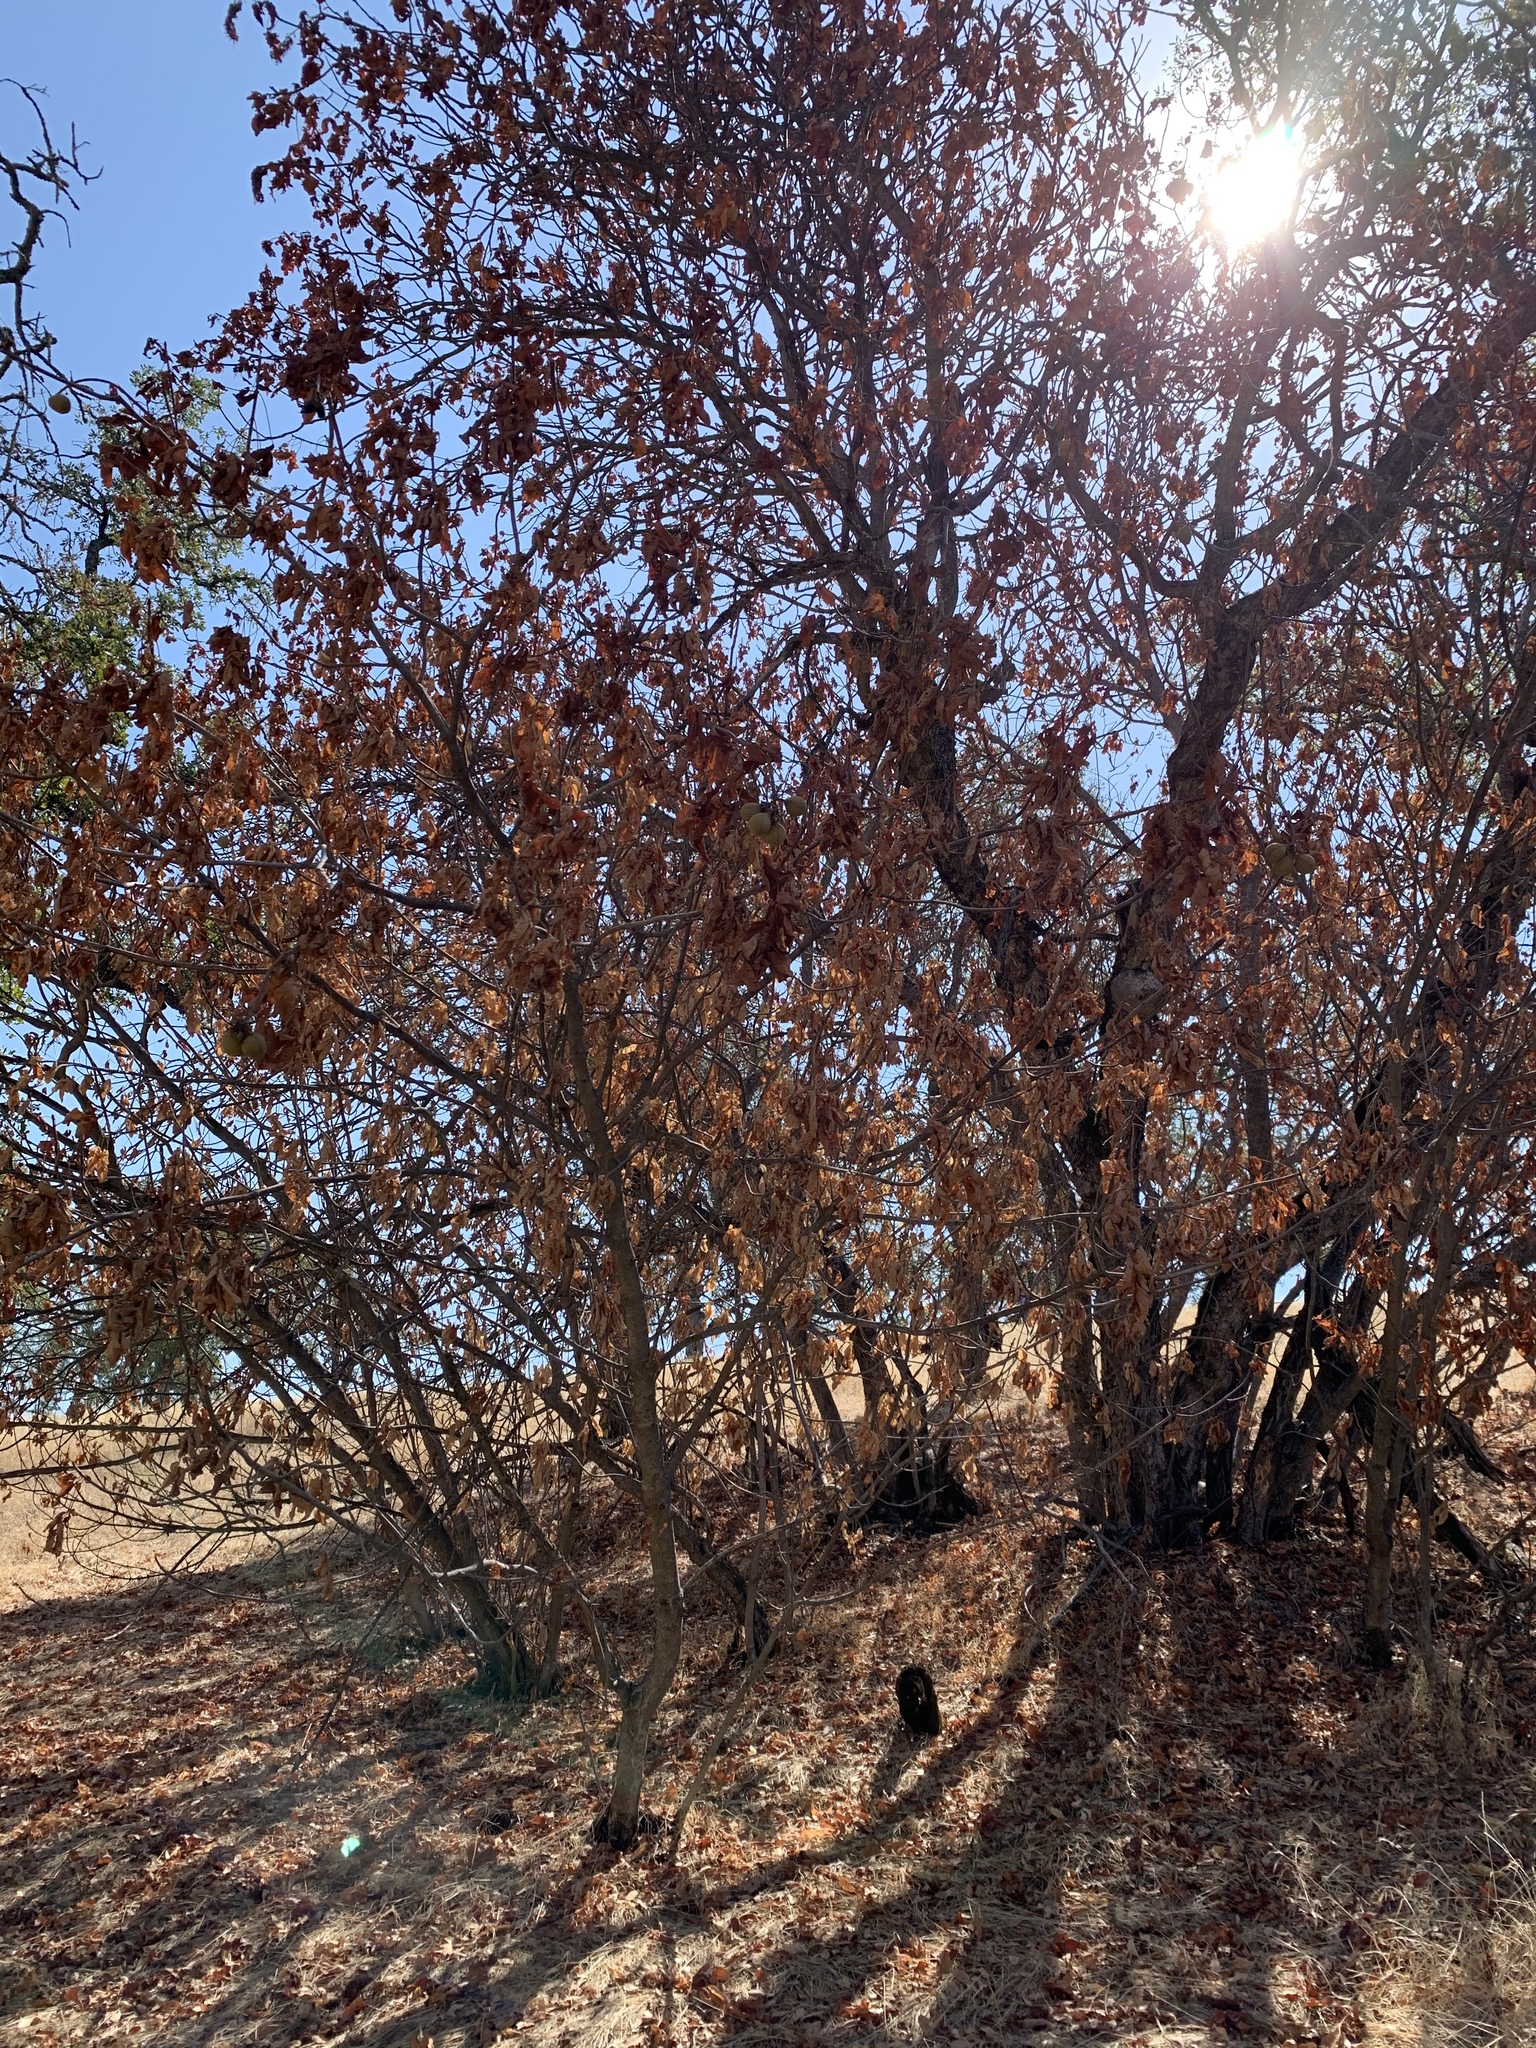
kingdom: Plantae
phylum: Tracheophyta
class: Magnoliopsida
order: Sapindales
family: Sapindaceae
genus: Aesculus
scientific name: Aesculus californica
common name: California buckeye
